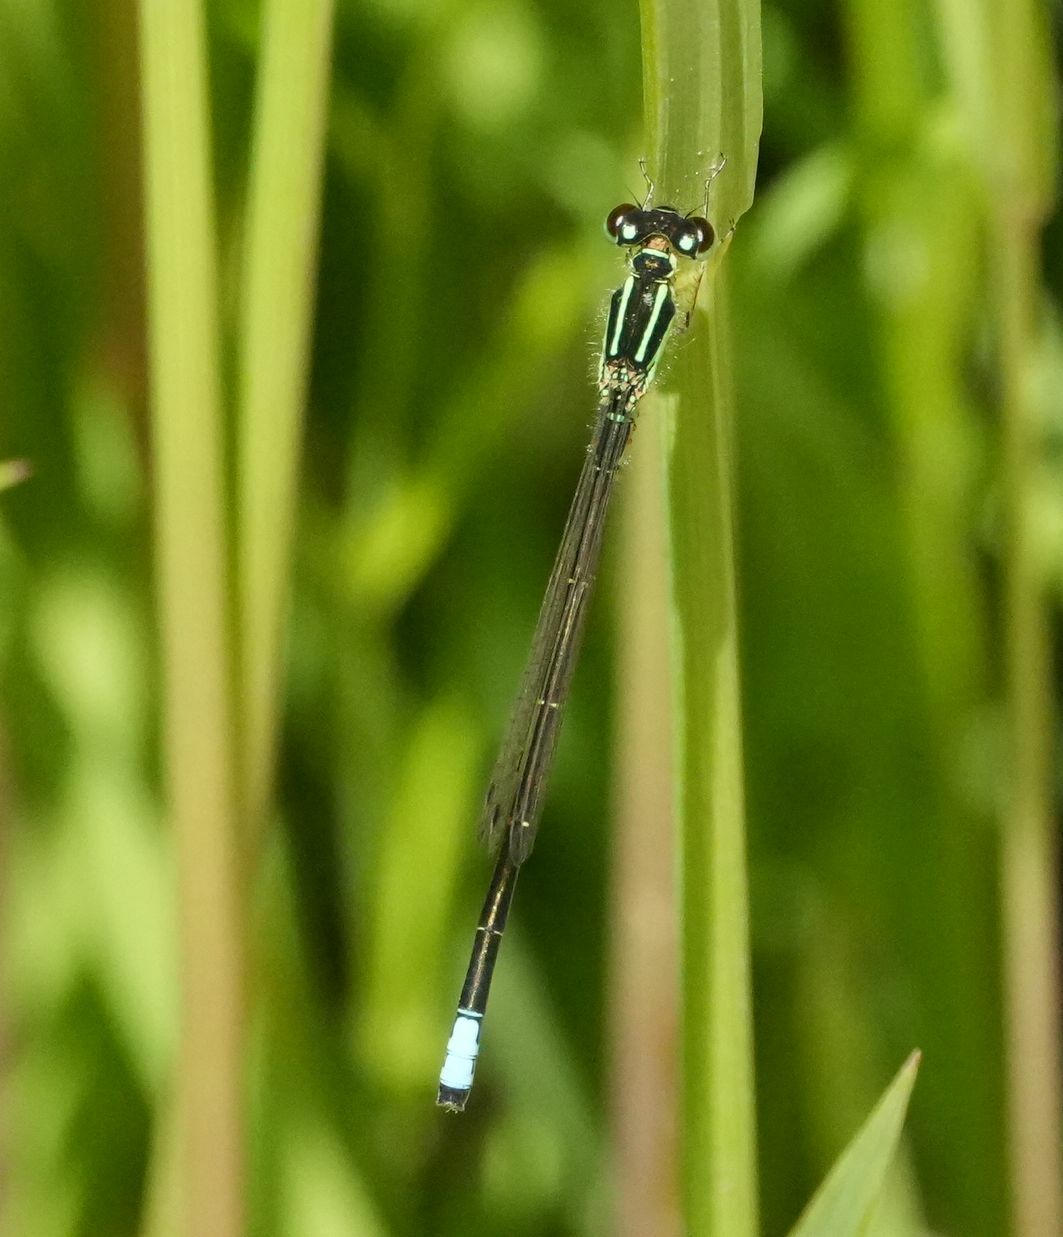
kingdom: Animalia
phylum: Arthropoda
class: Insecta
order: Odonata
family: Coenagrionidae
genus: Ischnura
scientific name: Ischnura verticalis
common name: Eastern forktail
